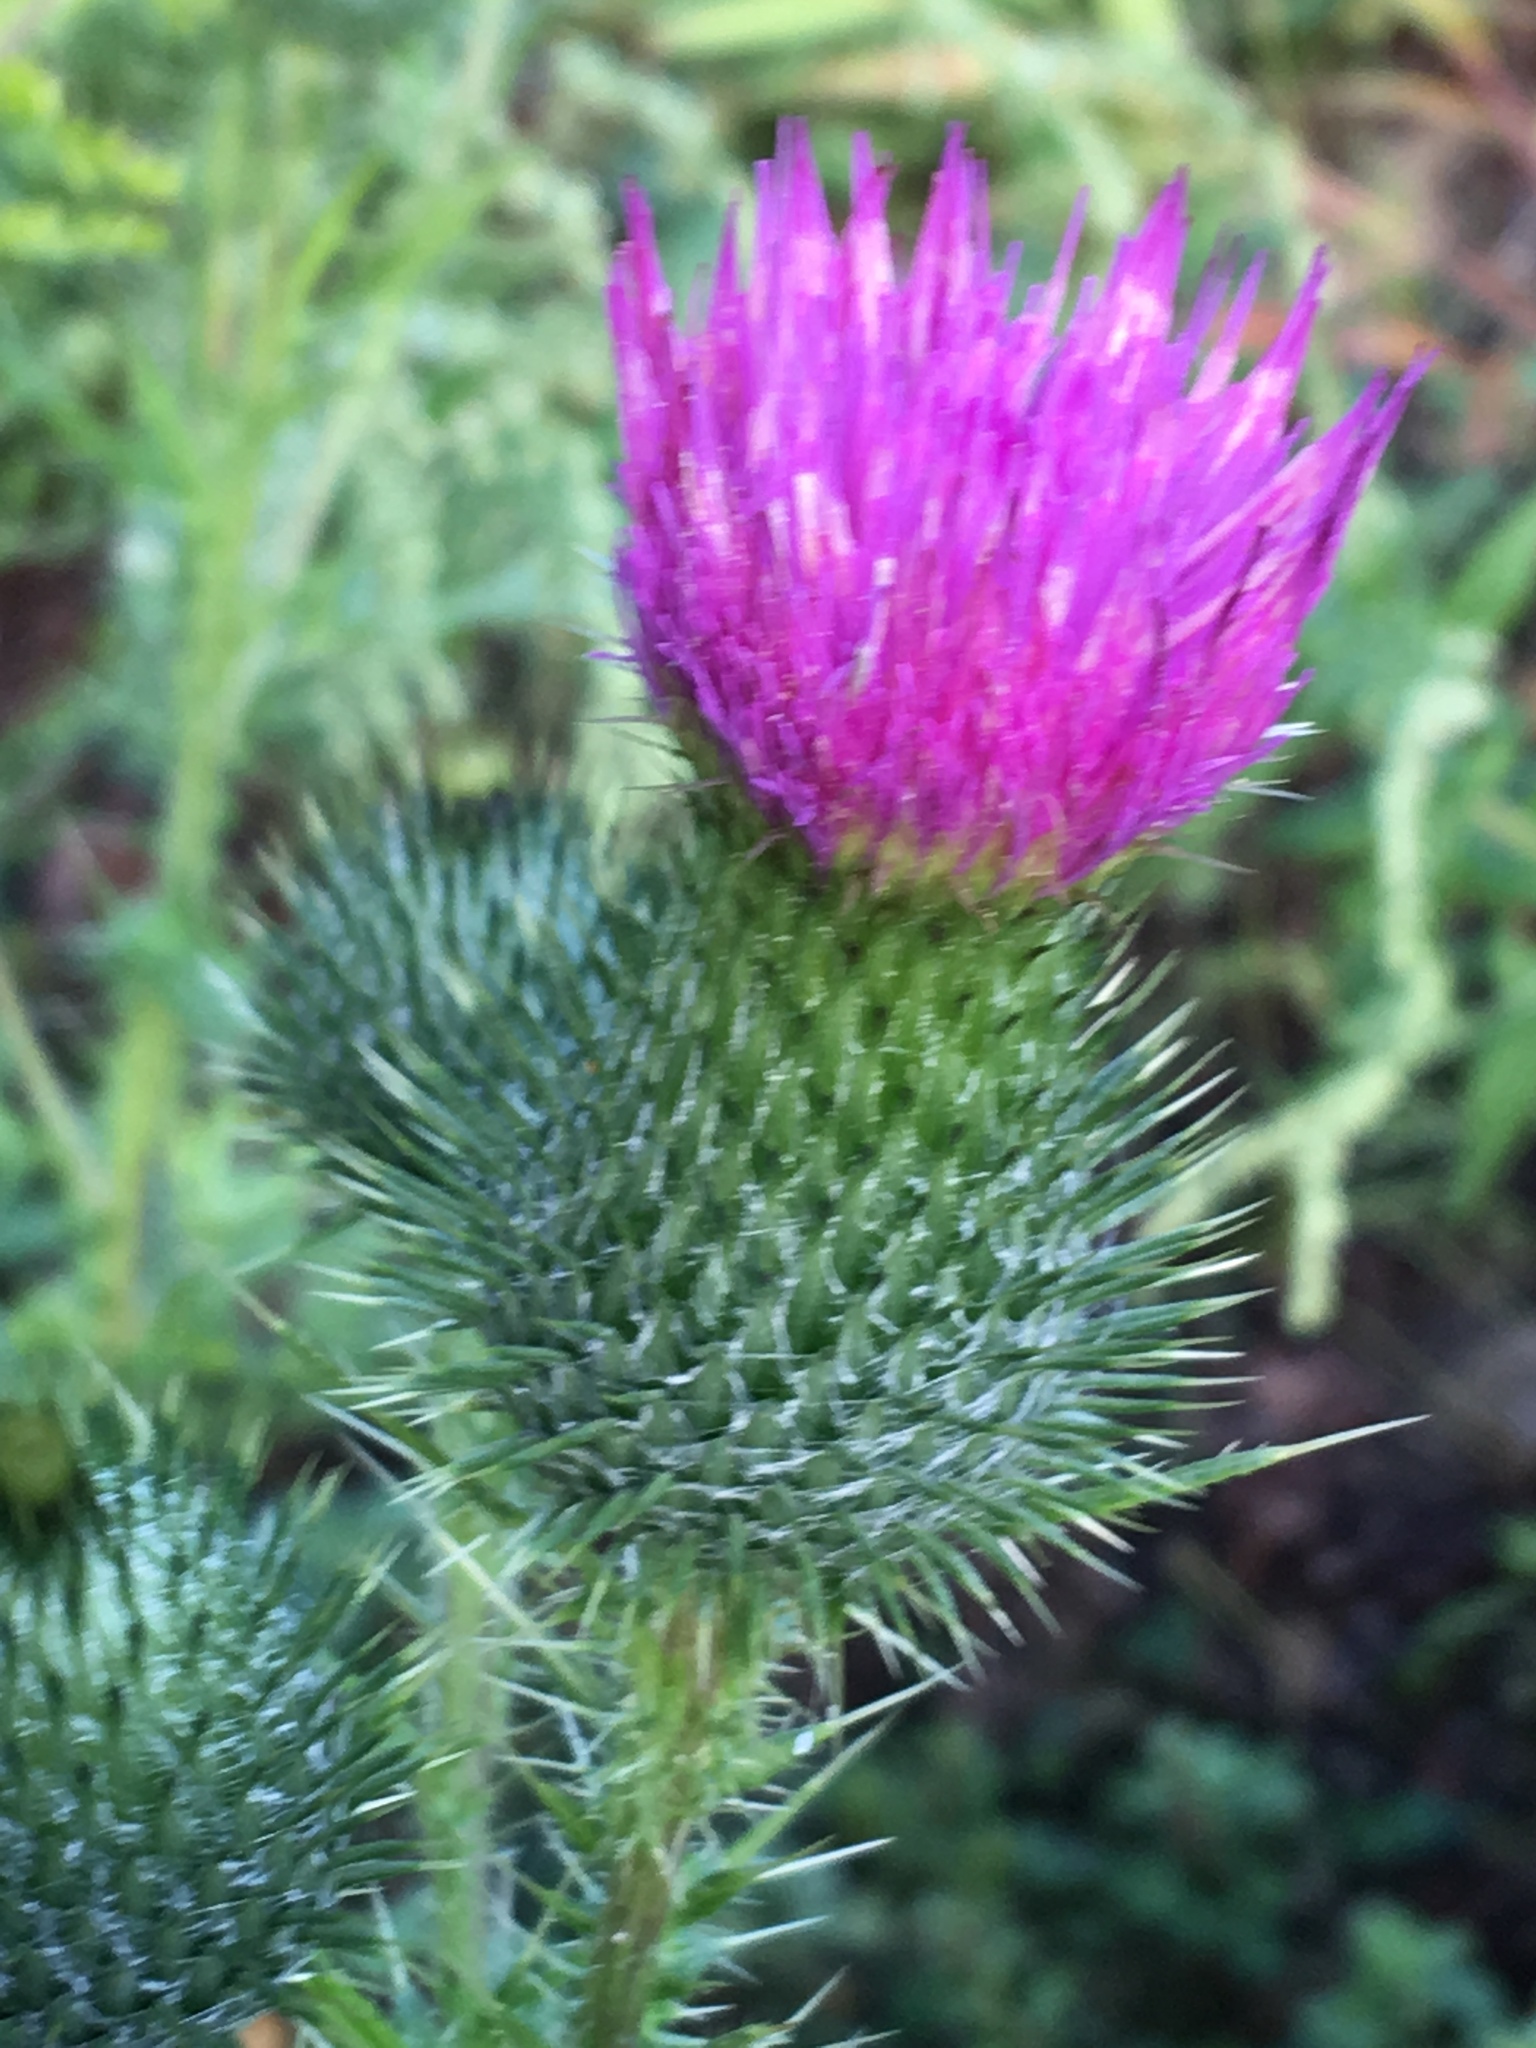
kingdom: Plantae
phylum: Tracheophyta
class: Magnoliopsida
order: Asterales
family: Asteraceae
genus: Cirsium
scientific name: Cirsium vulgare
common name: Bull thistle
